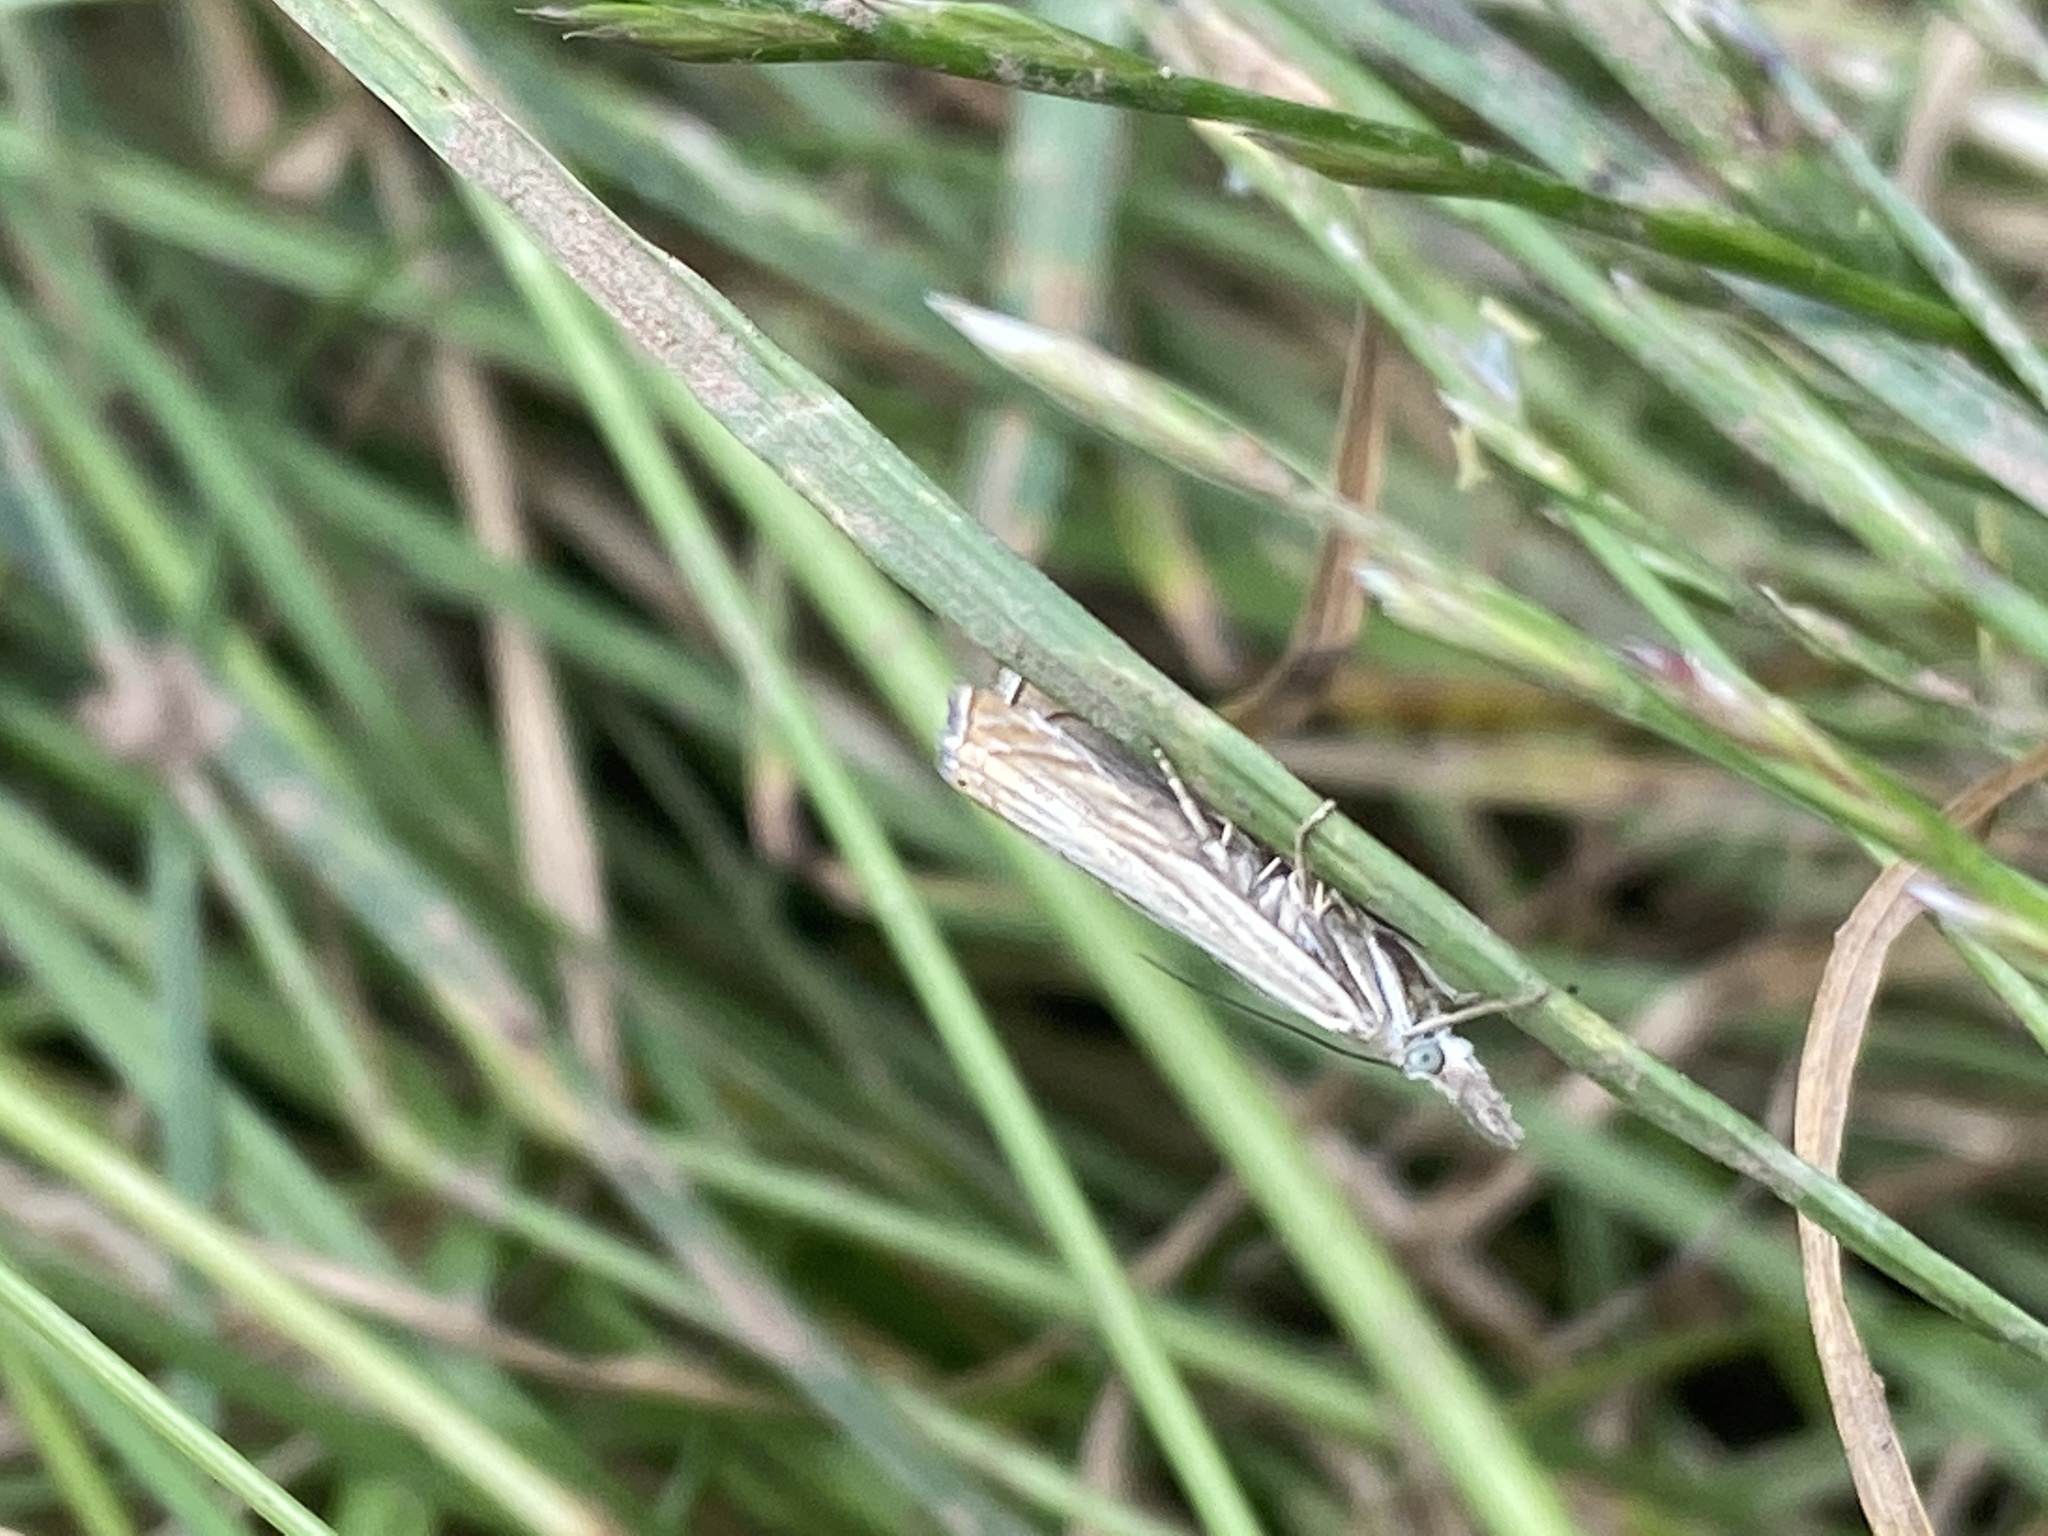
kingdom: Animalia
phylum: Arthropoda
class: Insecta
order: Lepidoptera
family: Crambidae
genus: Chrysoteuchia
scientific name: Chrysoteuchia culmella
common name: Garden grass-veneer
